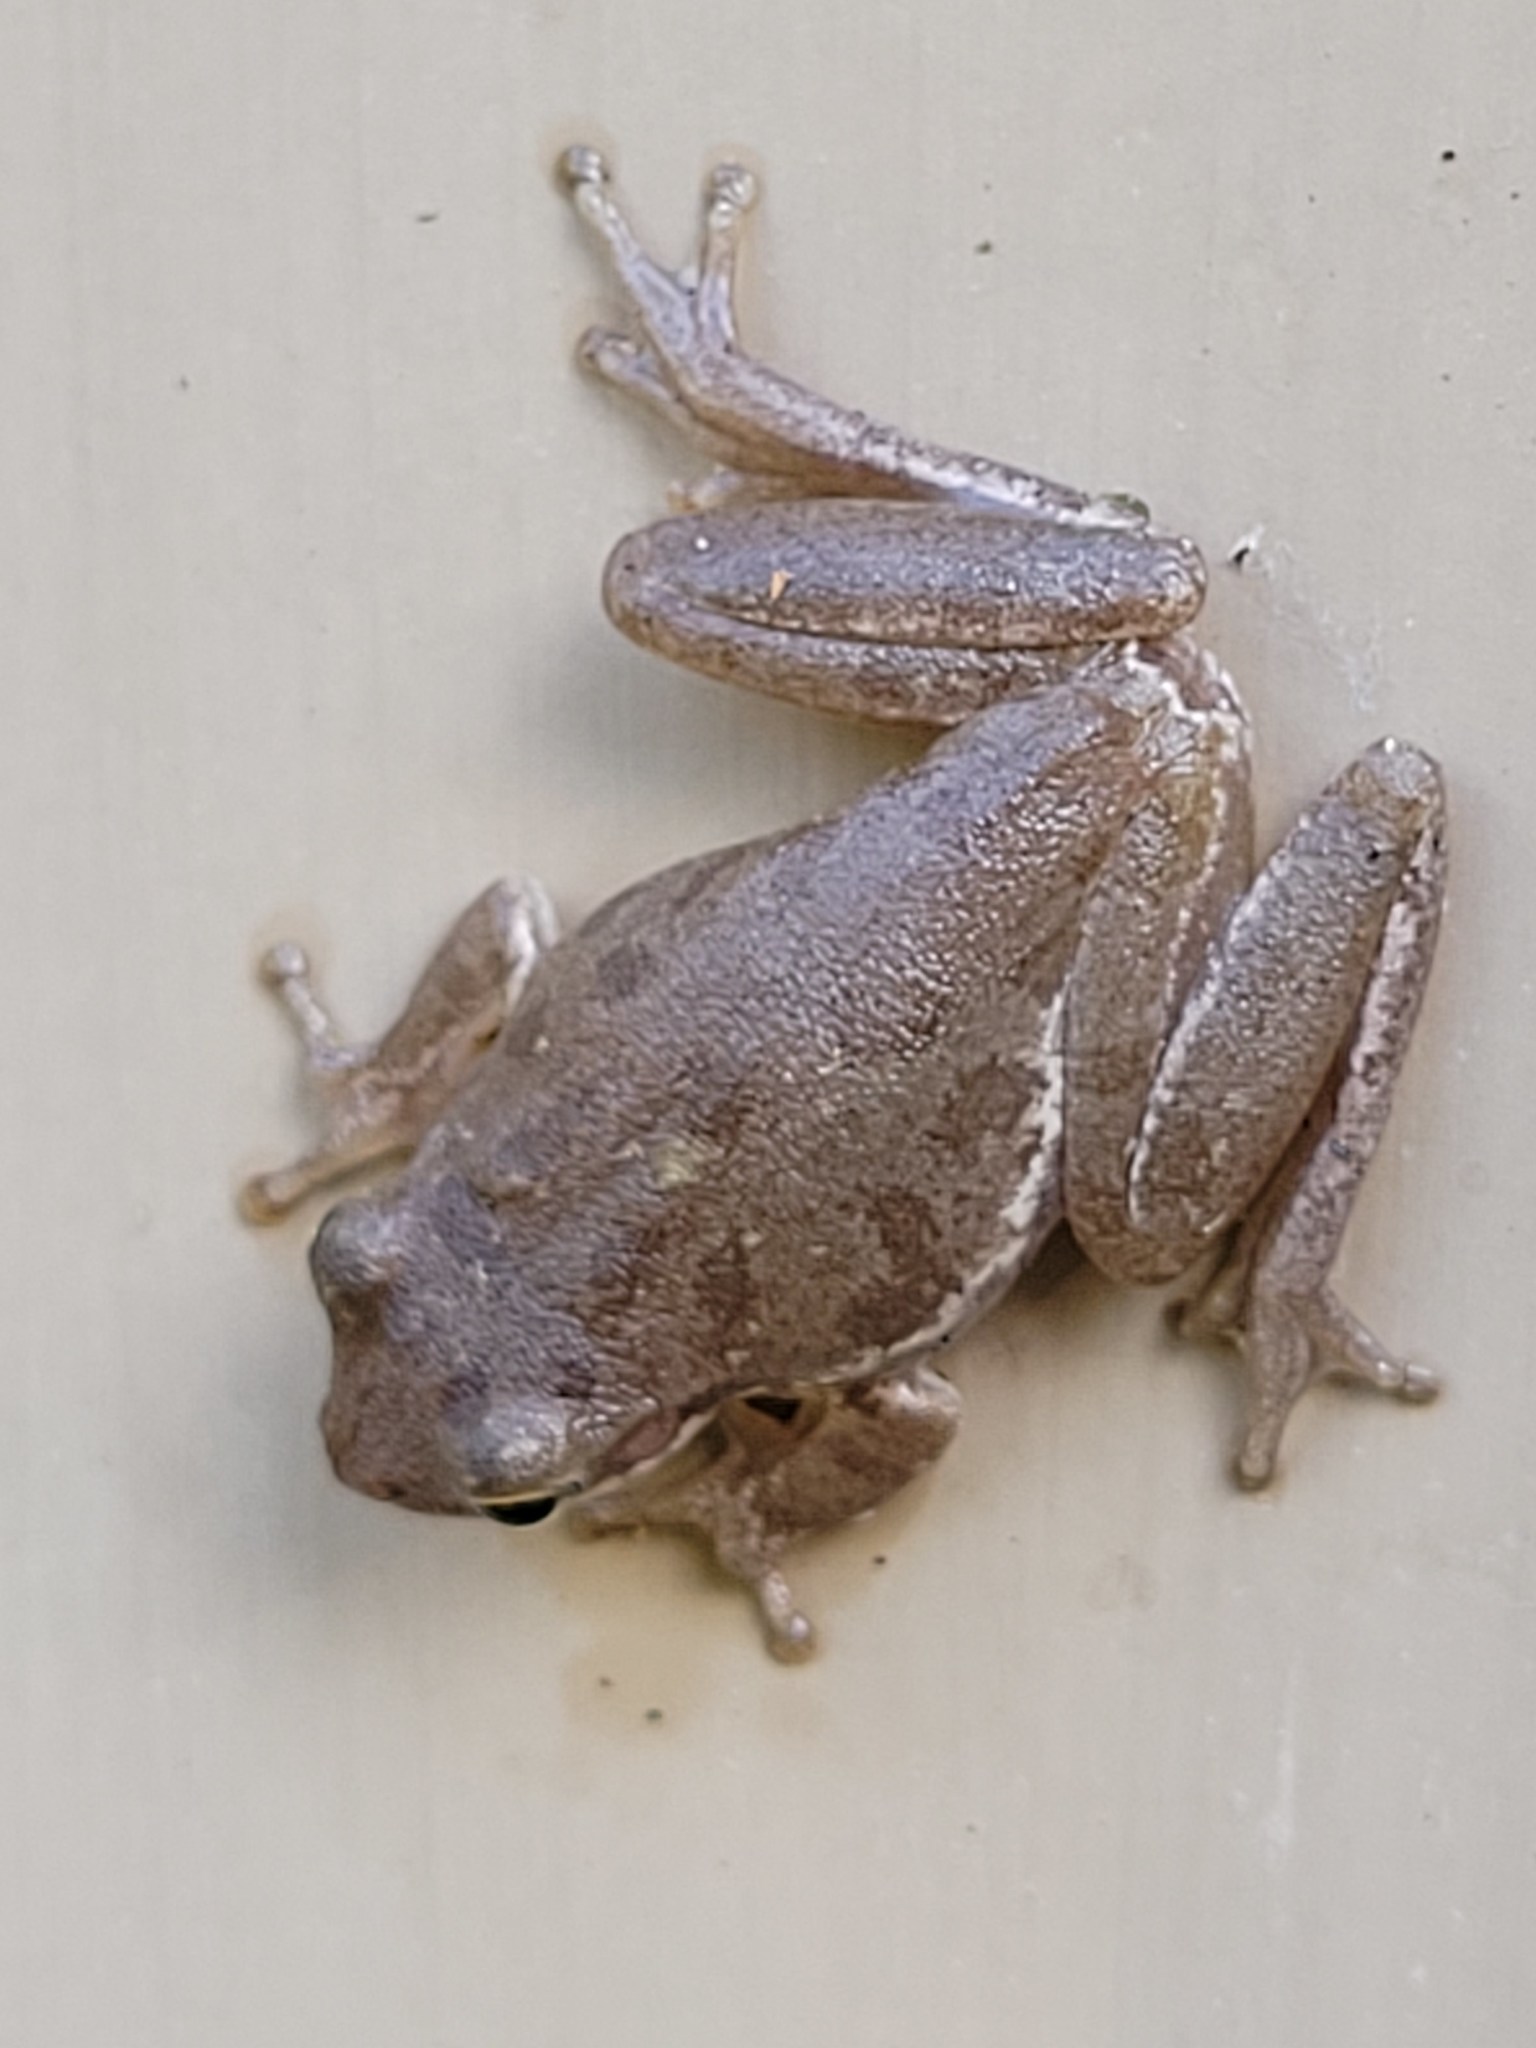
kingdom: Animalia
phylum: Chordata
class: Amphibia
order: Anura
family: Hylidae
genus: Dryophytes
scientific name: Dryophytes squirellus
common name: Squirrel treefrog
